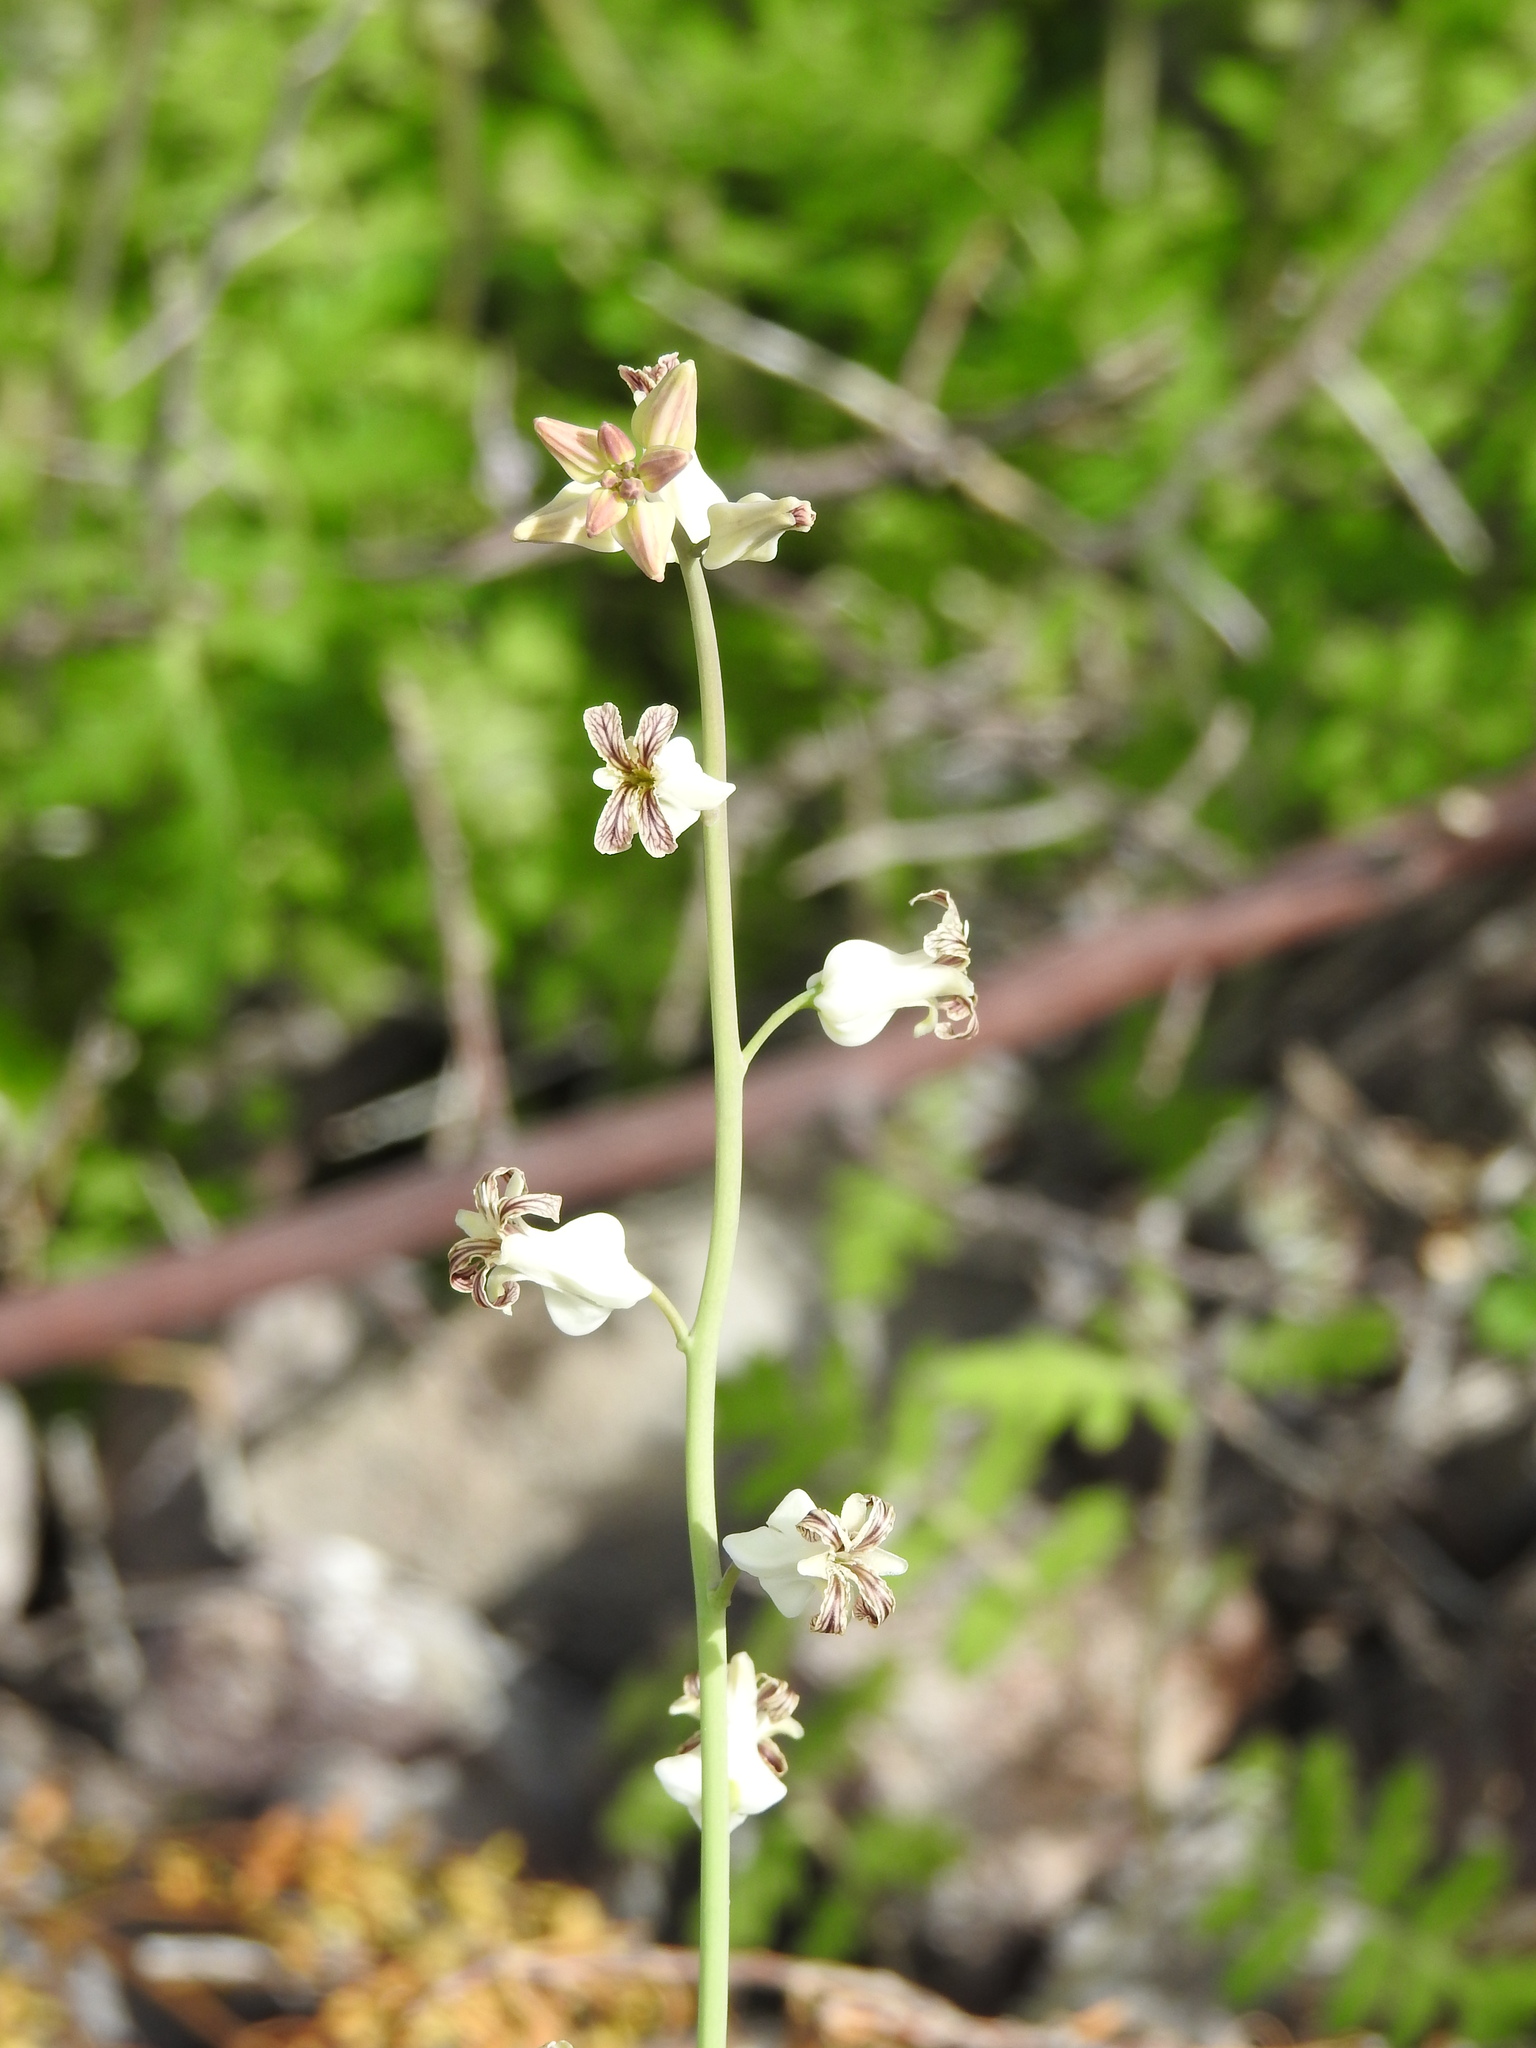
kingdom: Plantae
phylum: Tracheophyta
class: Magnoliopsida
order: Brassicales
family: Brassicaceae
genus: Streptanthus
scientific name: Streptanthus carinatus
